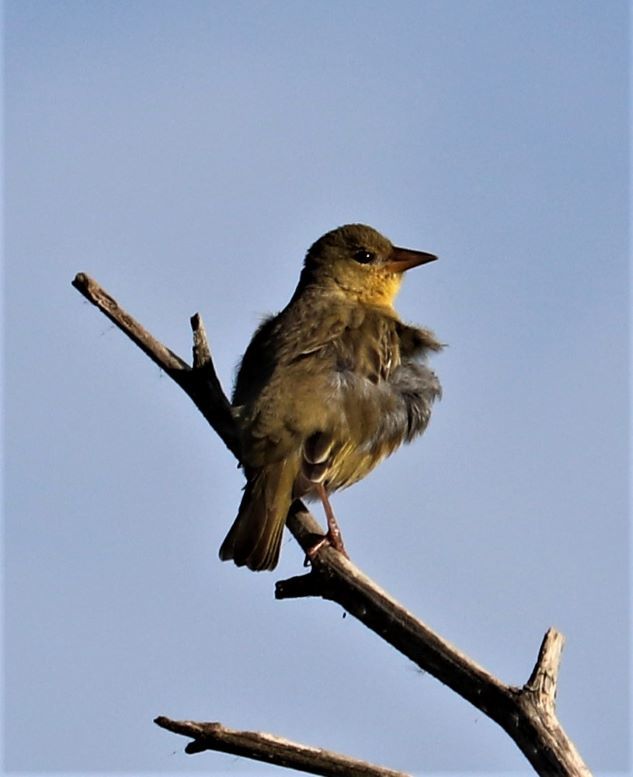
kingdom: Animalia
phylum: Chordata
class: Aves
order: Passeriformes
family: Ploceidae
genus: Ploceus
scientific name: Ploceus capensis
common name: Cape weaver
